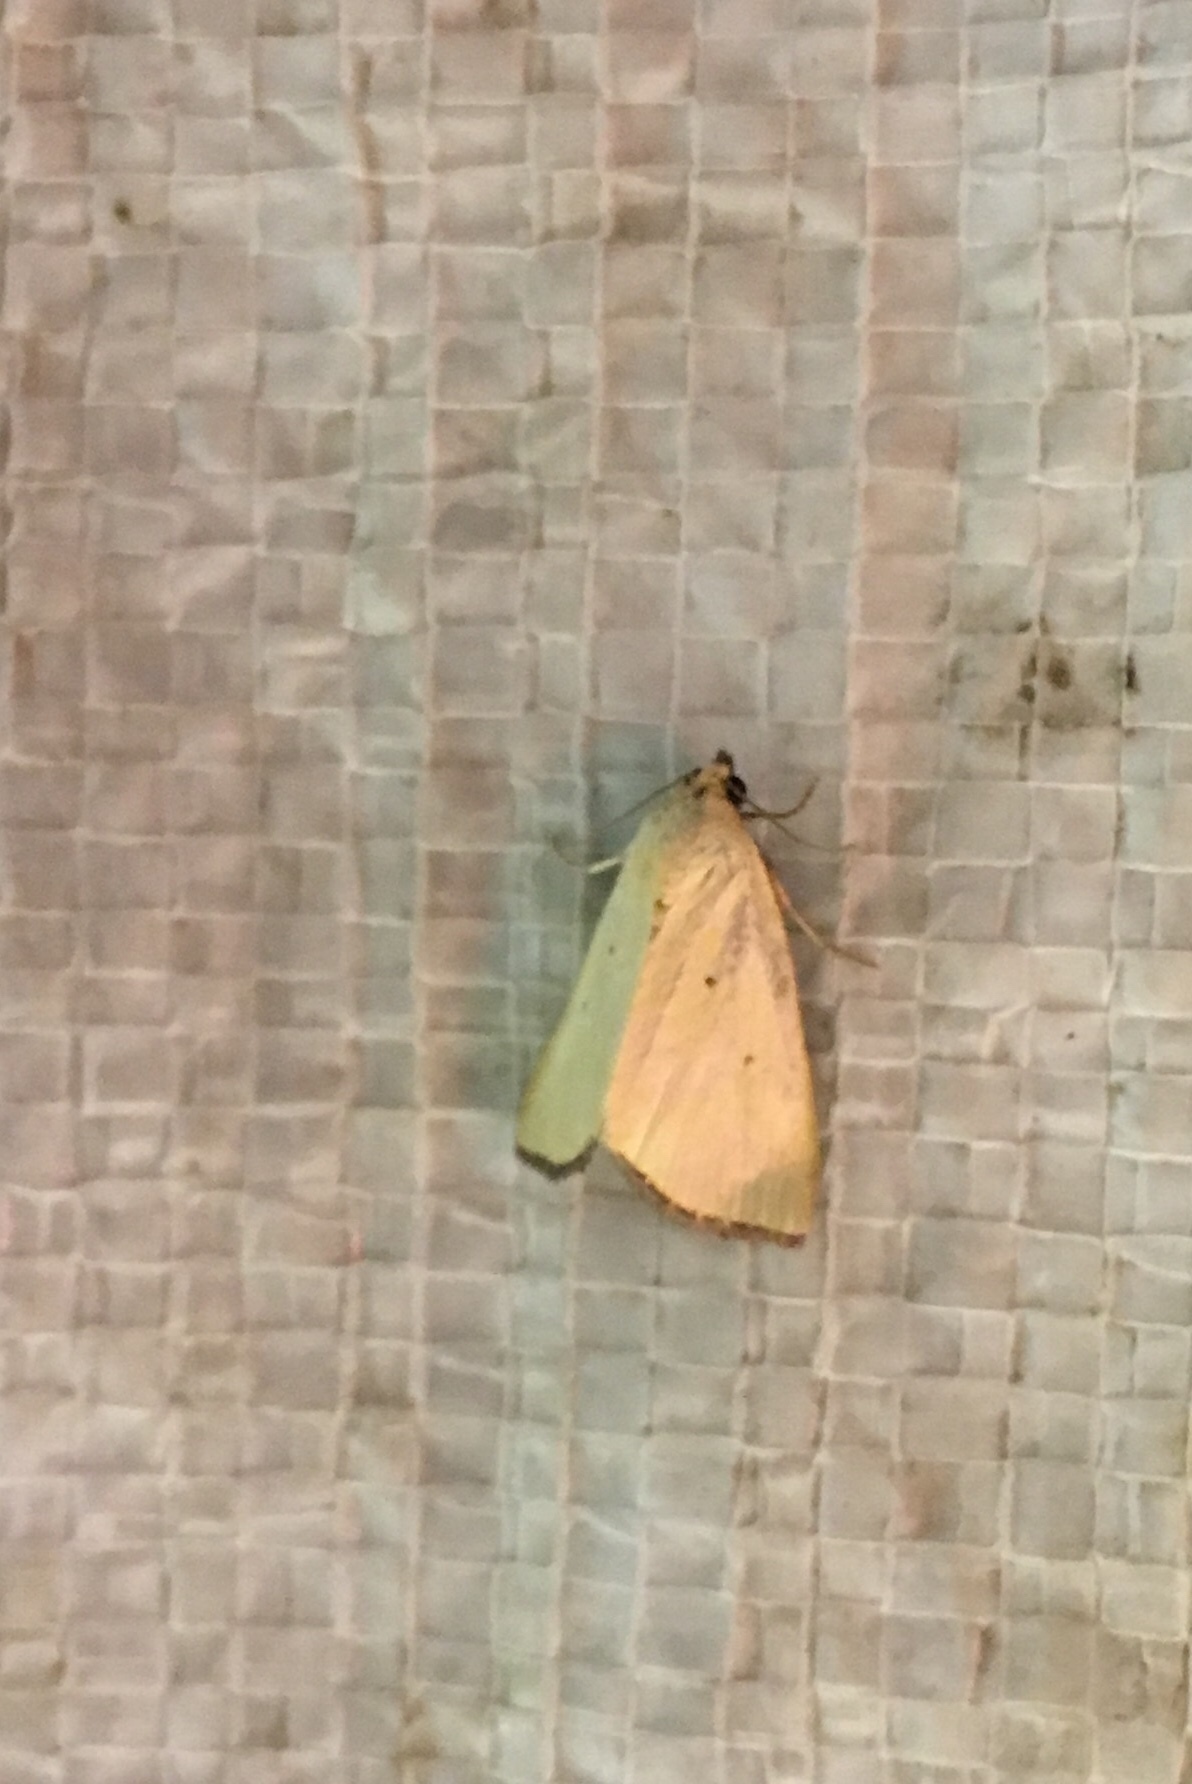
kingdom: Animalia
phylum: Arthropoda
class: Insecta
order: Lepidoptera
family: Noctuidae
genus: Marimatha
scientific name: Marimatha nigrofimbria
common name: Black-bordered lemon moth
